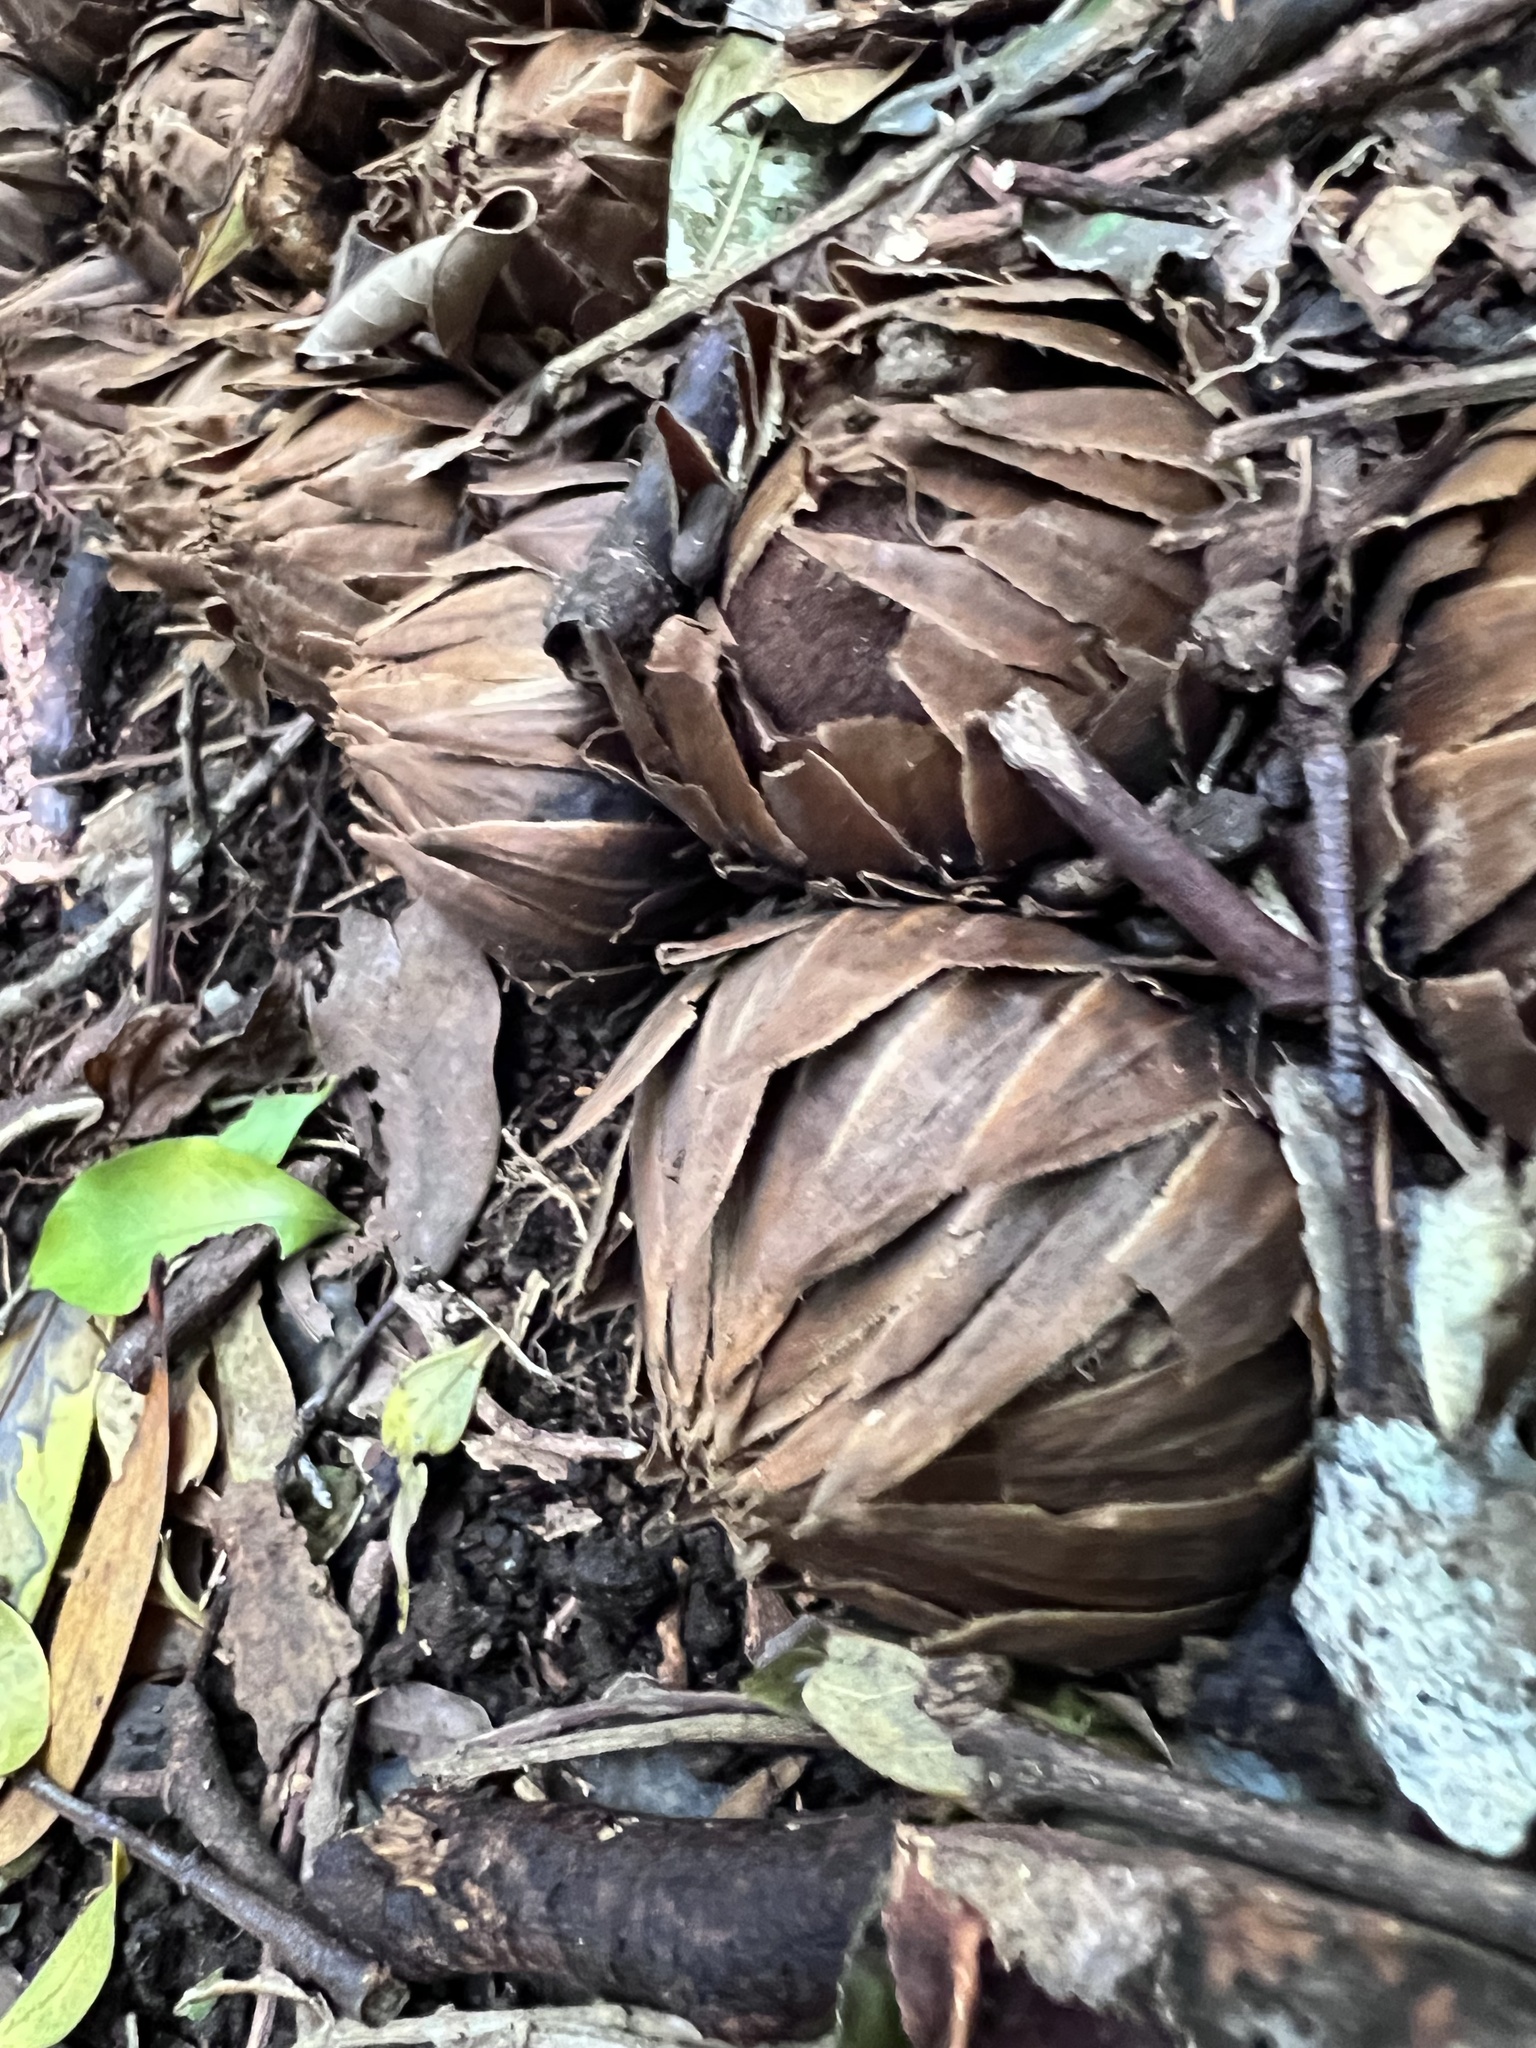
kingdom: Plantae
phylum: Tracheophyta
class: Magnoliopsida
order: Santalales
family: Balanophoraceae
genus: Langsdorffia
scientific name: Langsdorffia hypogaea
